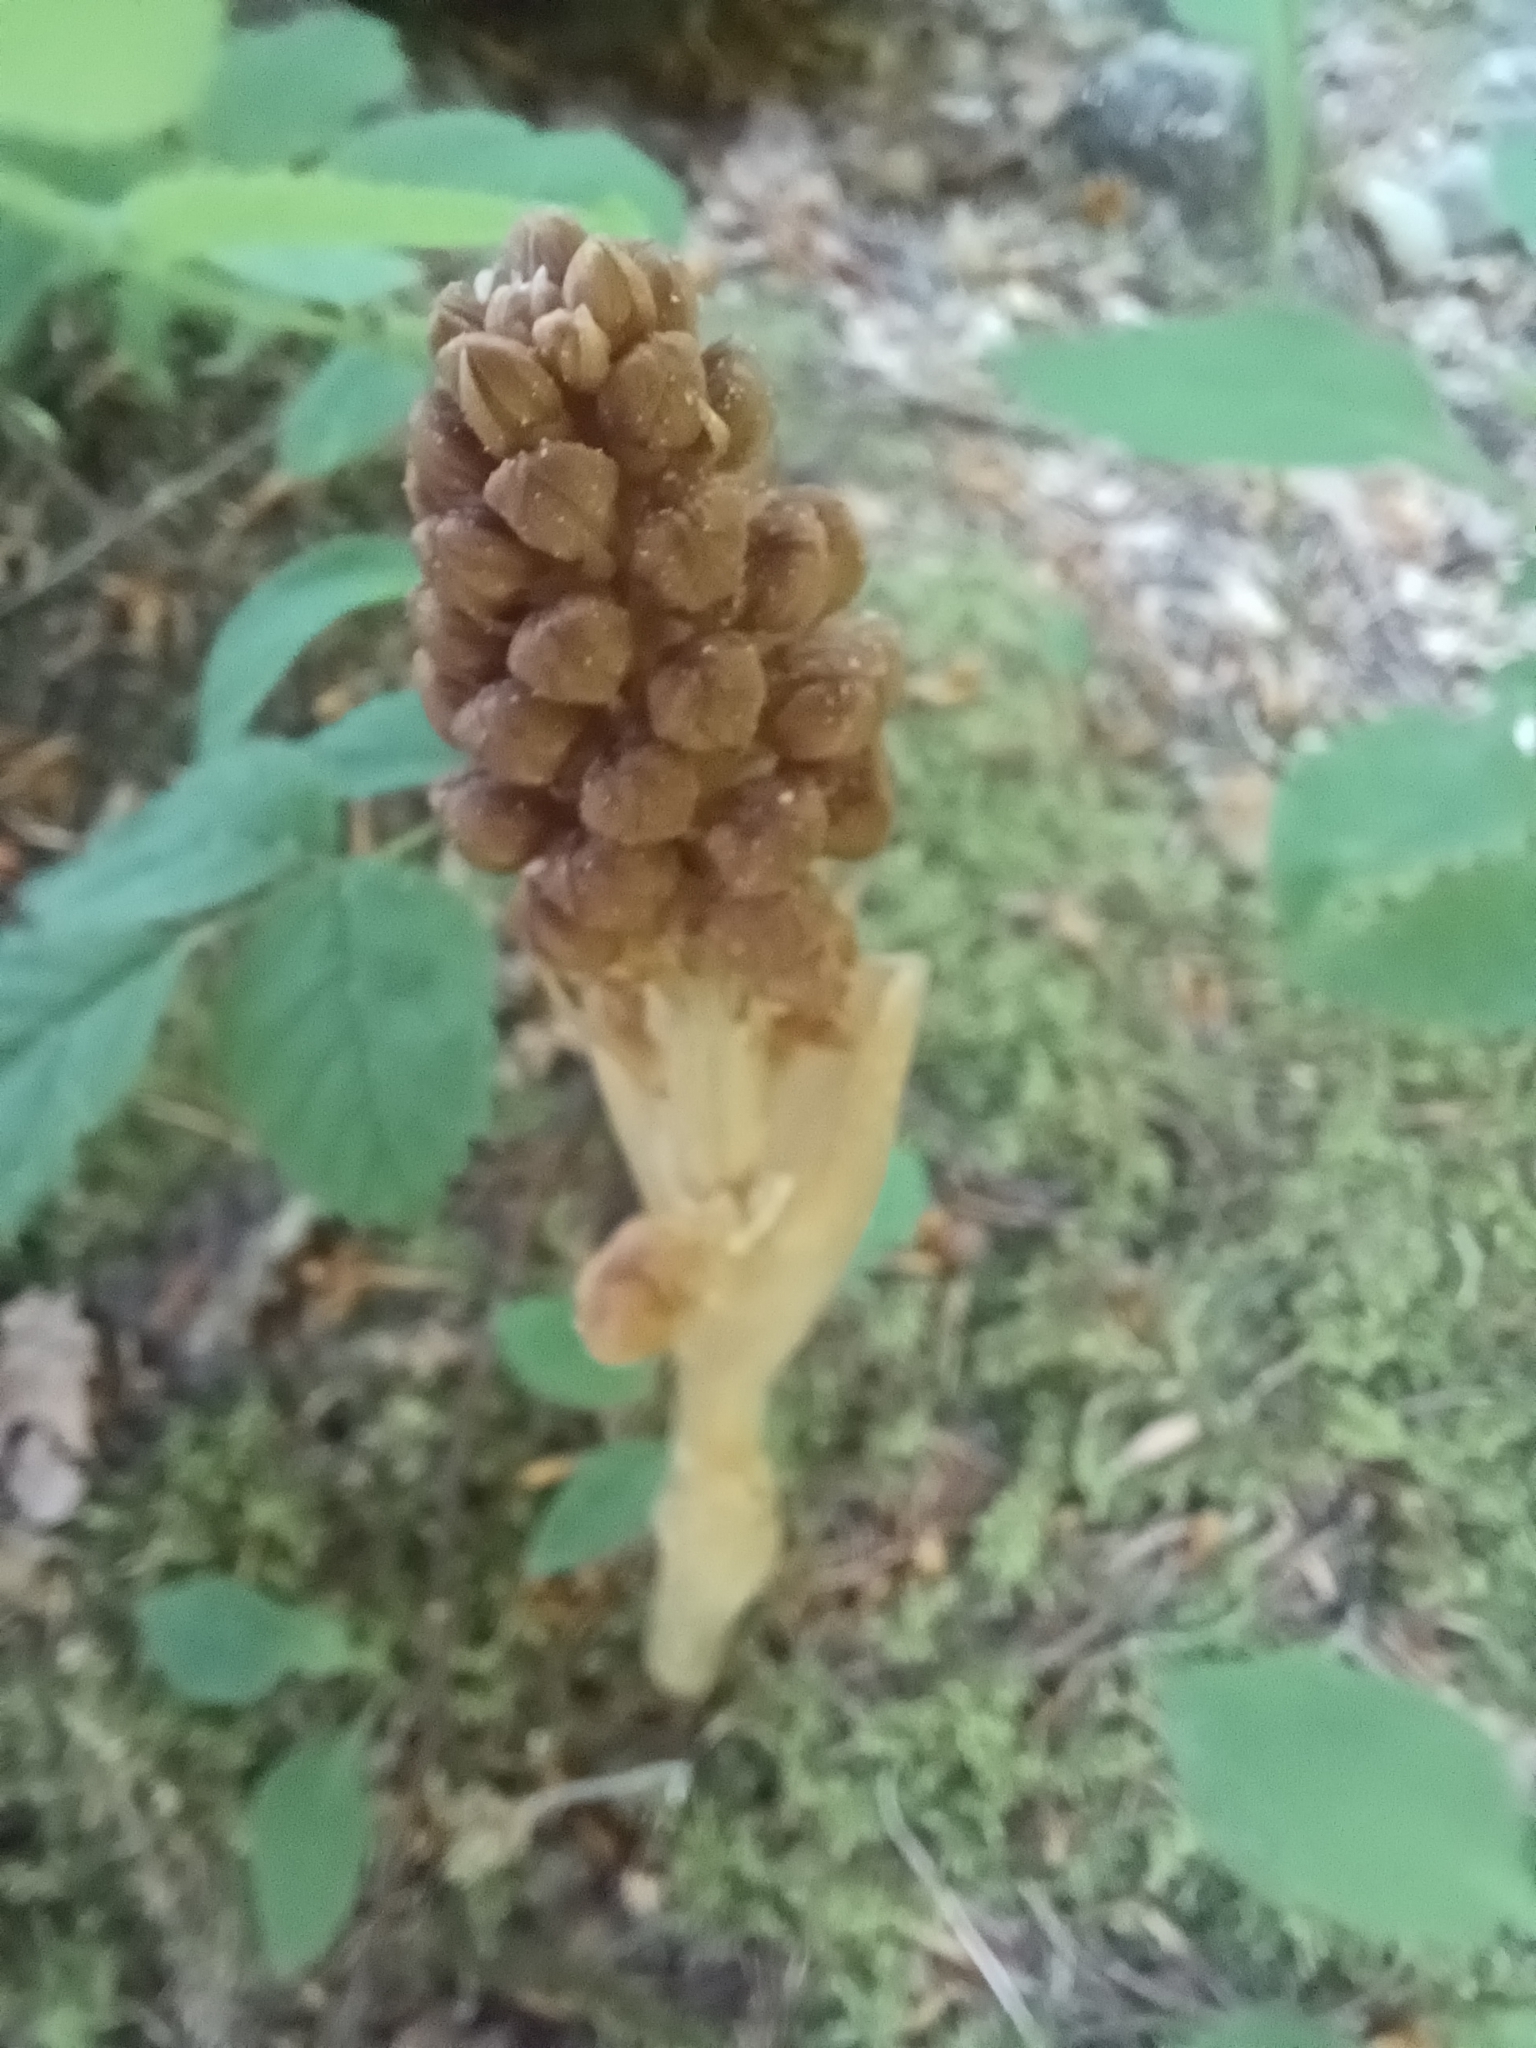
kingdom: Plantae
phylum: Tracheophyta
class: Liliopsida
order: Asparagales
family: Orchidaceae
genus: Neottia
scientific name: Neottia nidus-avis
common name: Bird's-nest orchid
